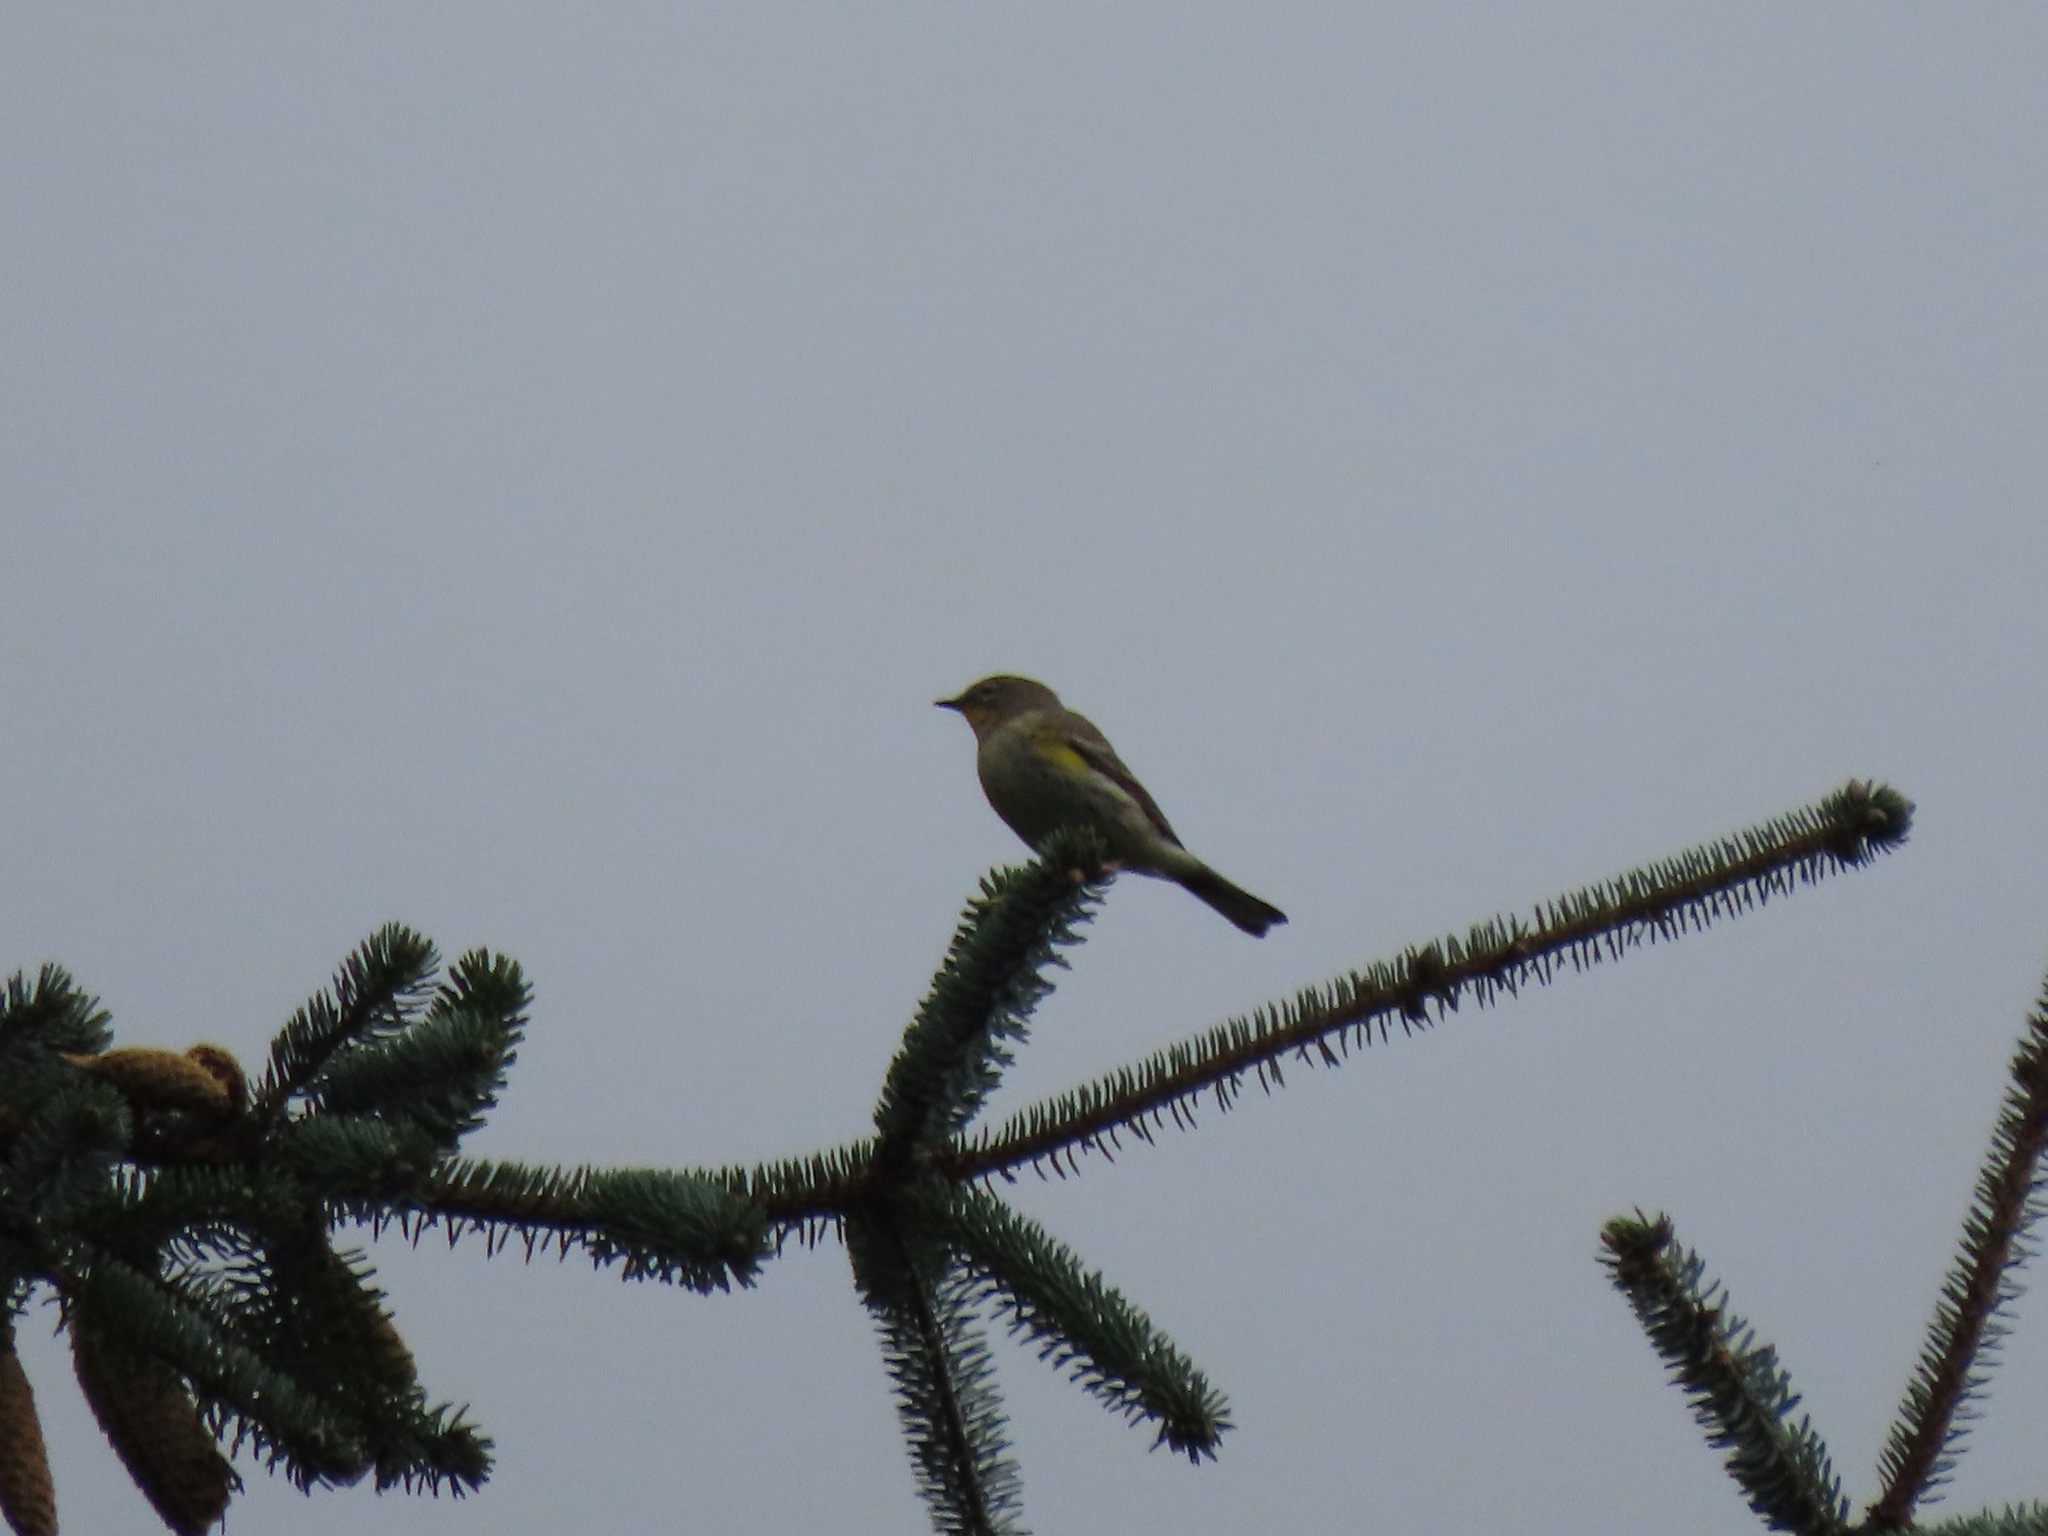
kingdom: Animalia
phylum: Chordata
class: Aves
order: Passeriformes
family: Parulidae
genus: Setophaga
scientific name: Setophaga coronata
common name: Myrtle warbler
